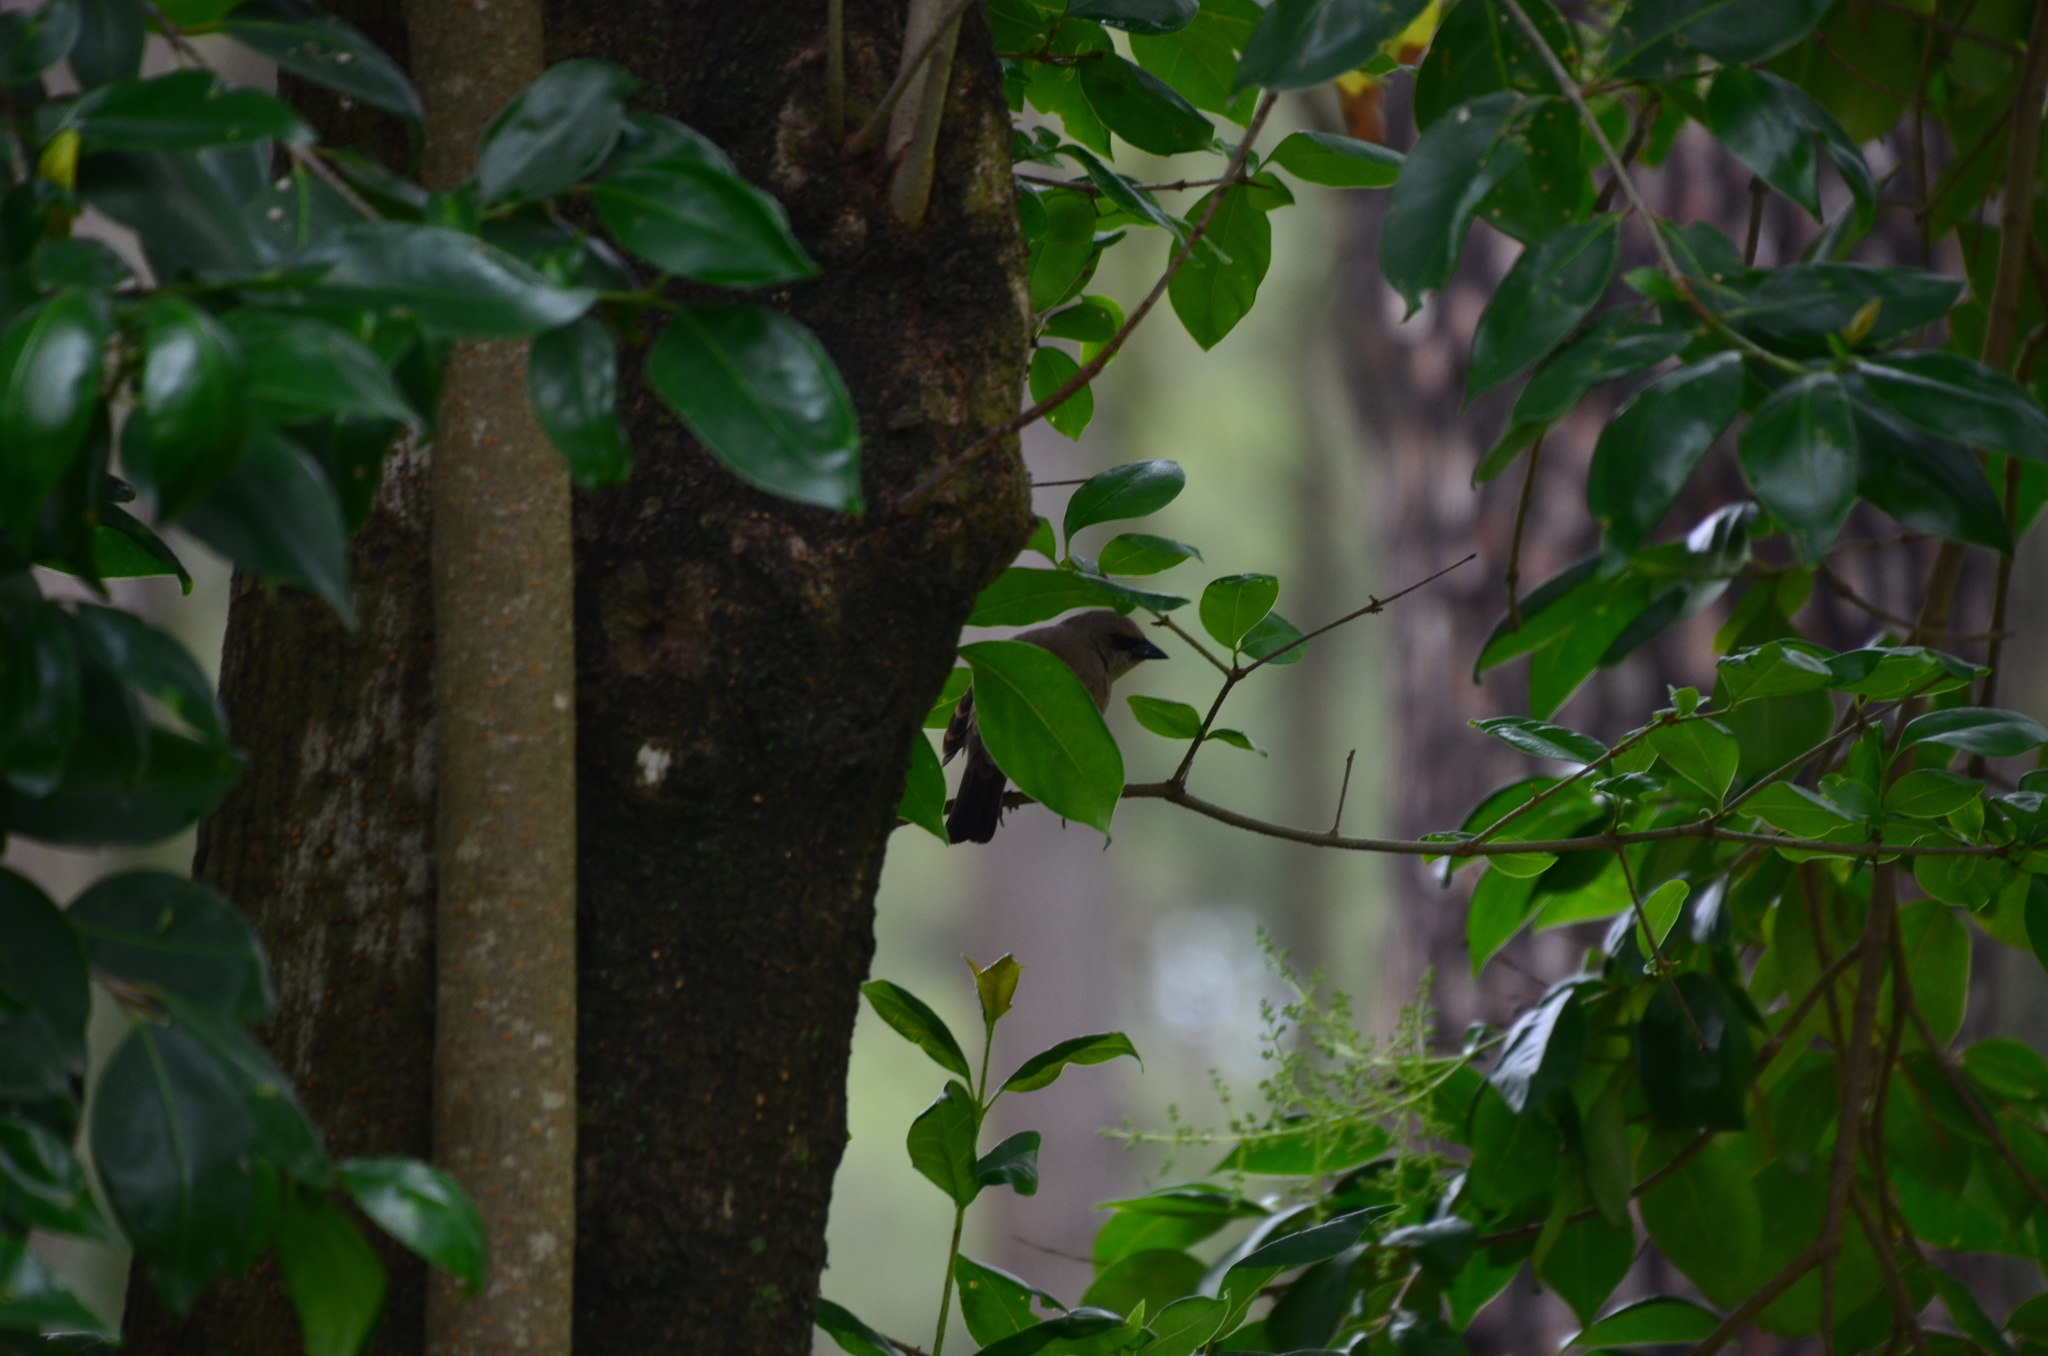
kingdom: Animalia
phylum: Chordata
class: Aves
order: Passeriformes
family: Icteridae
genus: Agelaioides
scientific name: Agelaioides badius
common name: Baywing
